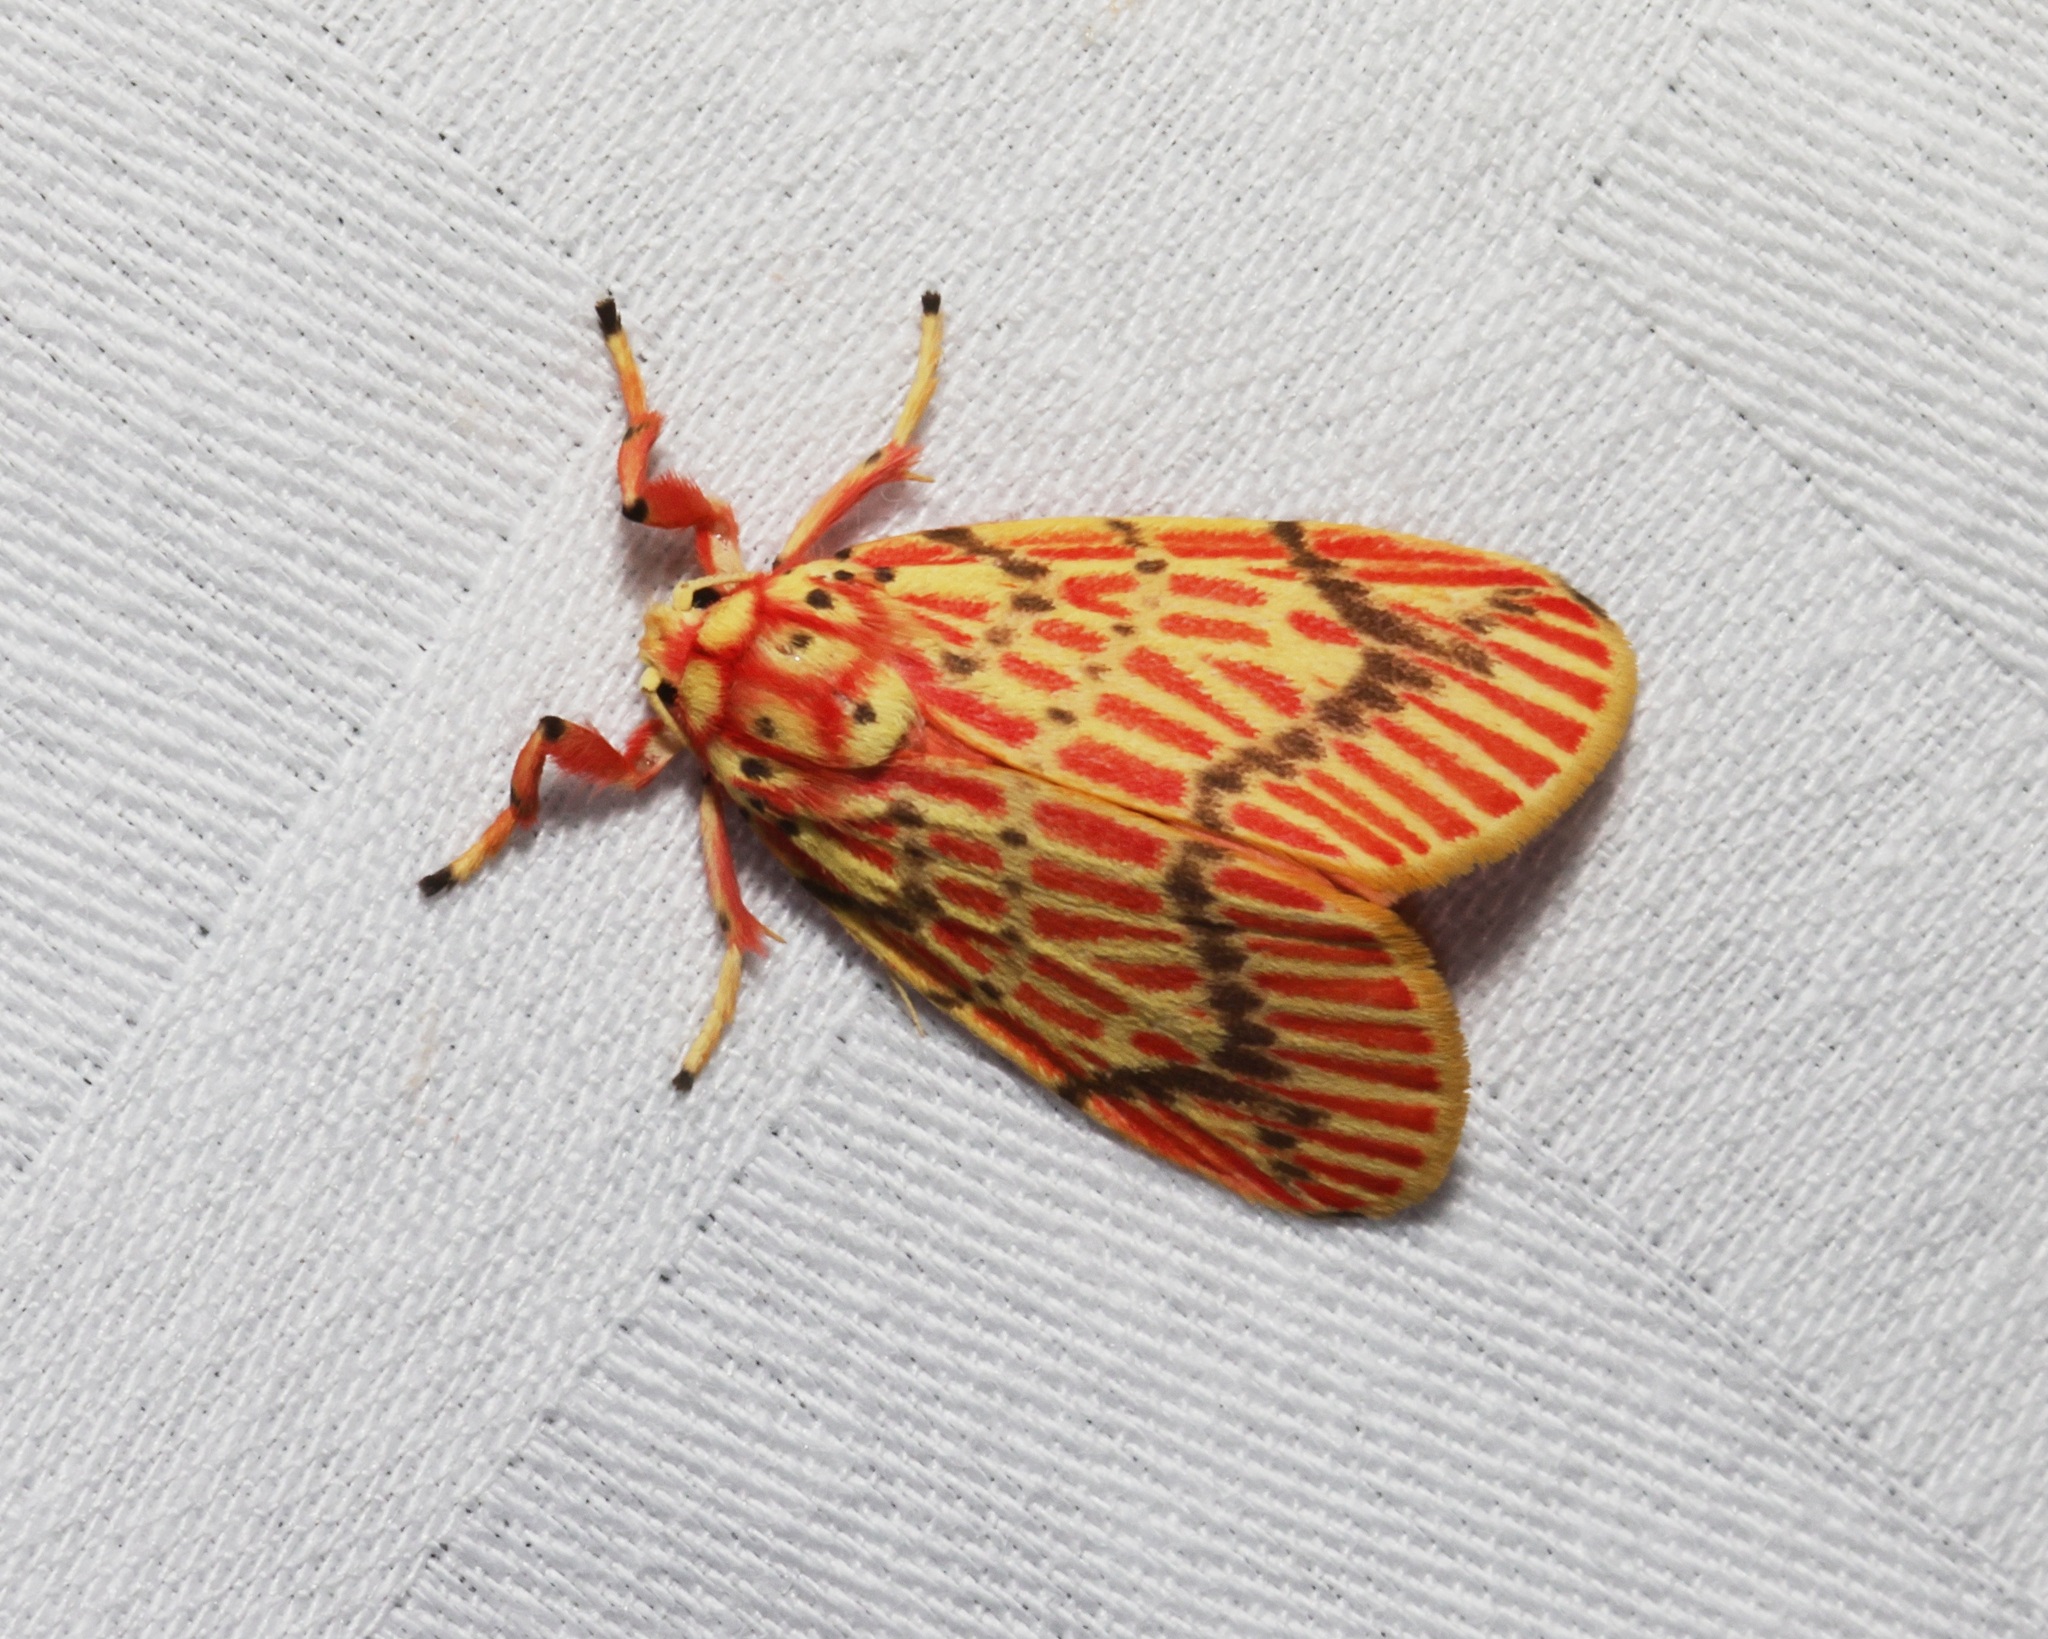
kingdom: Animalia
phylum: Arthropoda
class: Insecta
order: Lepidoptera
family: Erebidae
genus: Barsine
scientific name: Barsine striata
